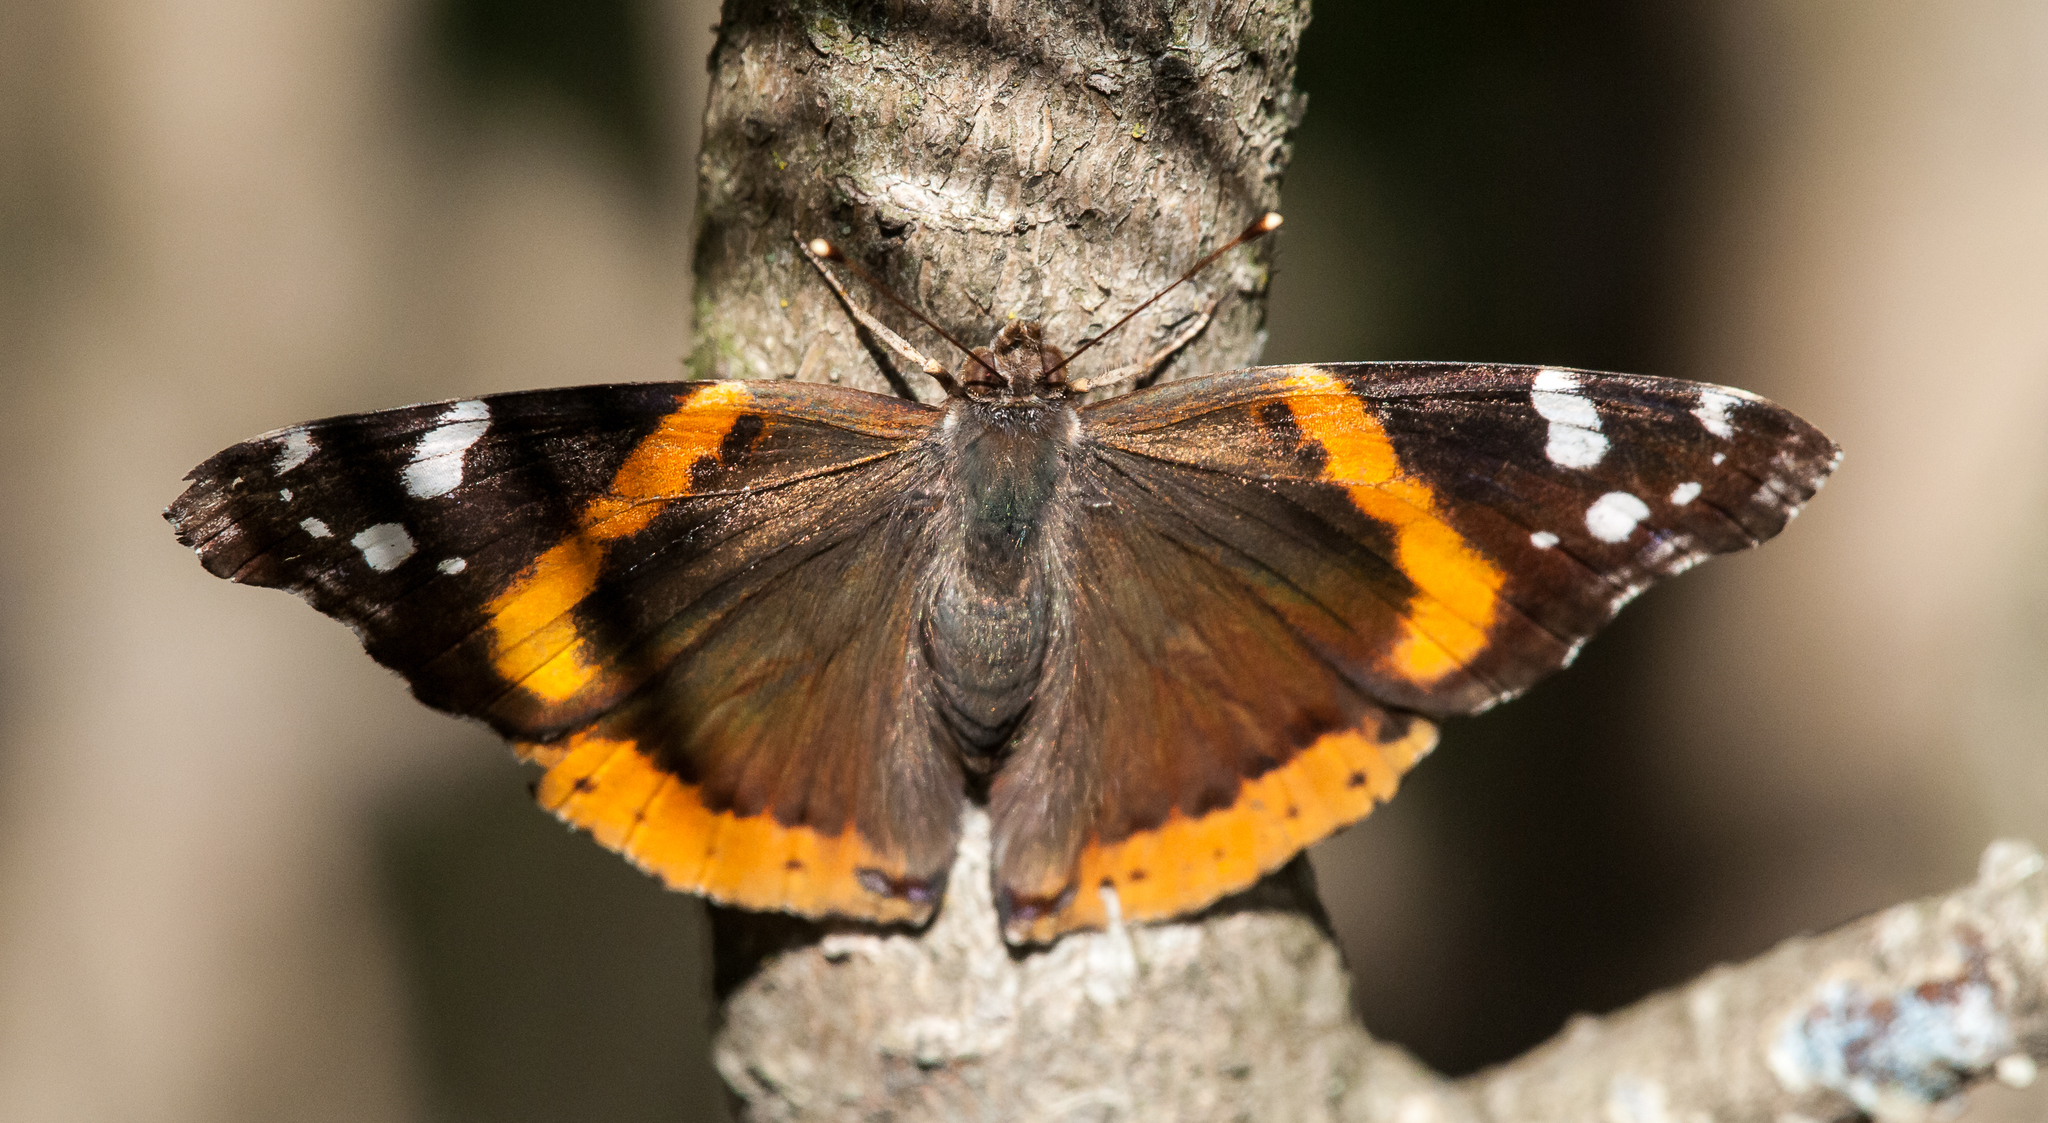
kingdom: Animalia
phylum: Arthropoda
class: Insecta
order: Lepidoptera
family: Nymphalidae
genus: Vanessa
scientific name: Vanessa atalanta
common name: Red admiral
